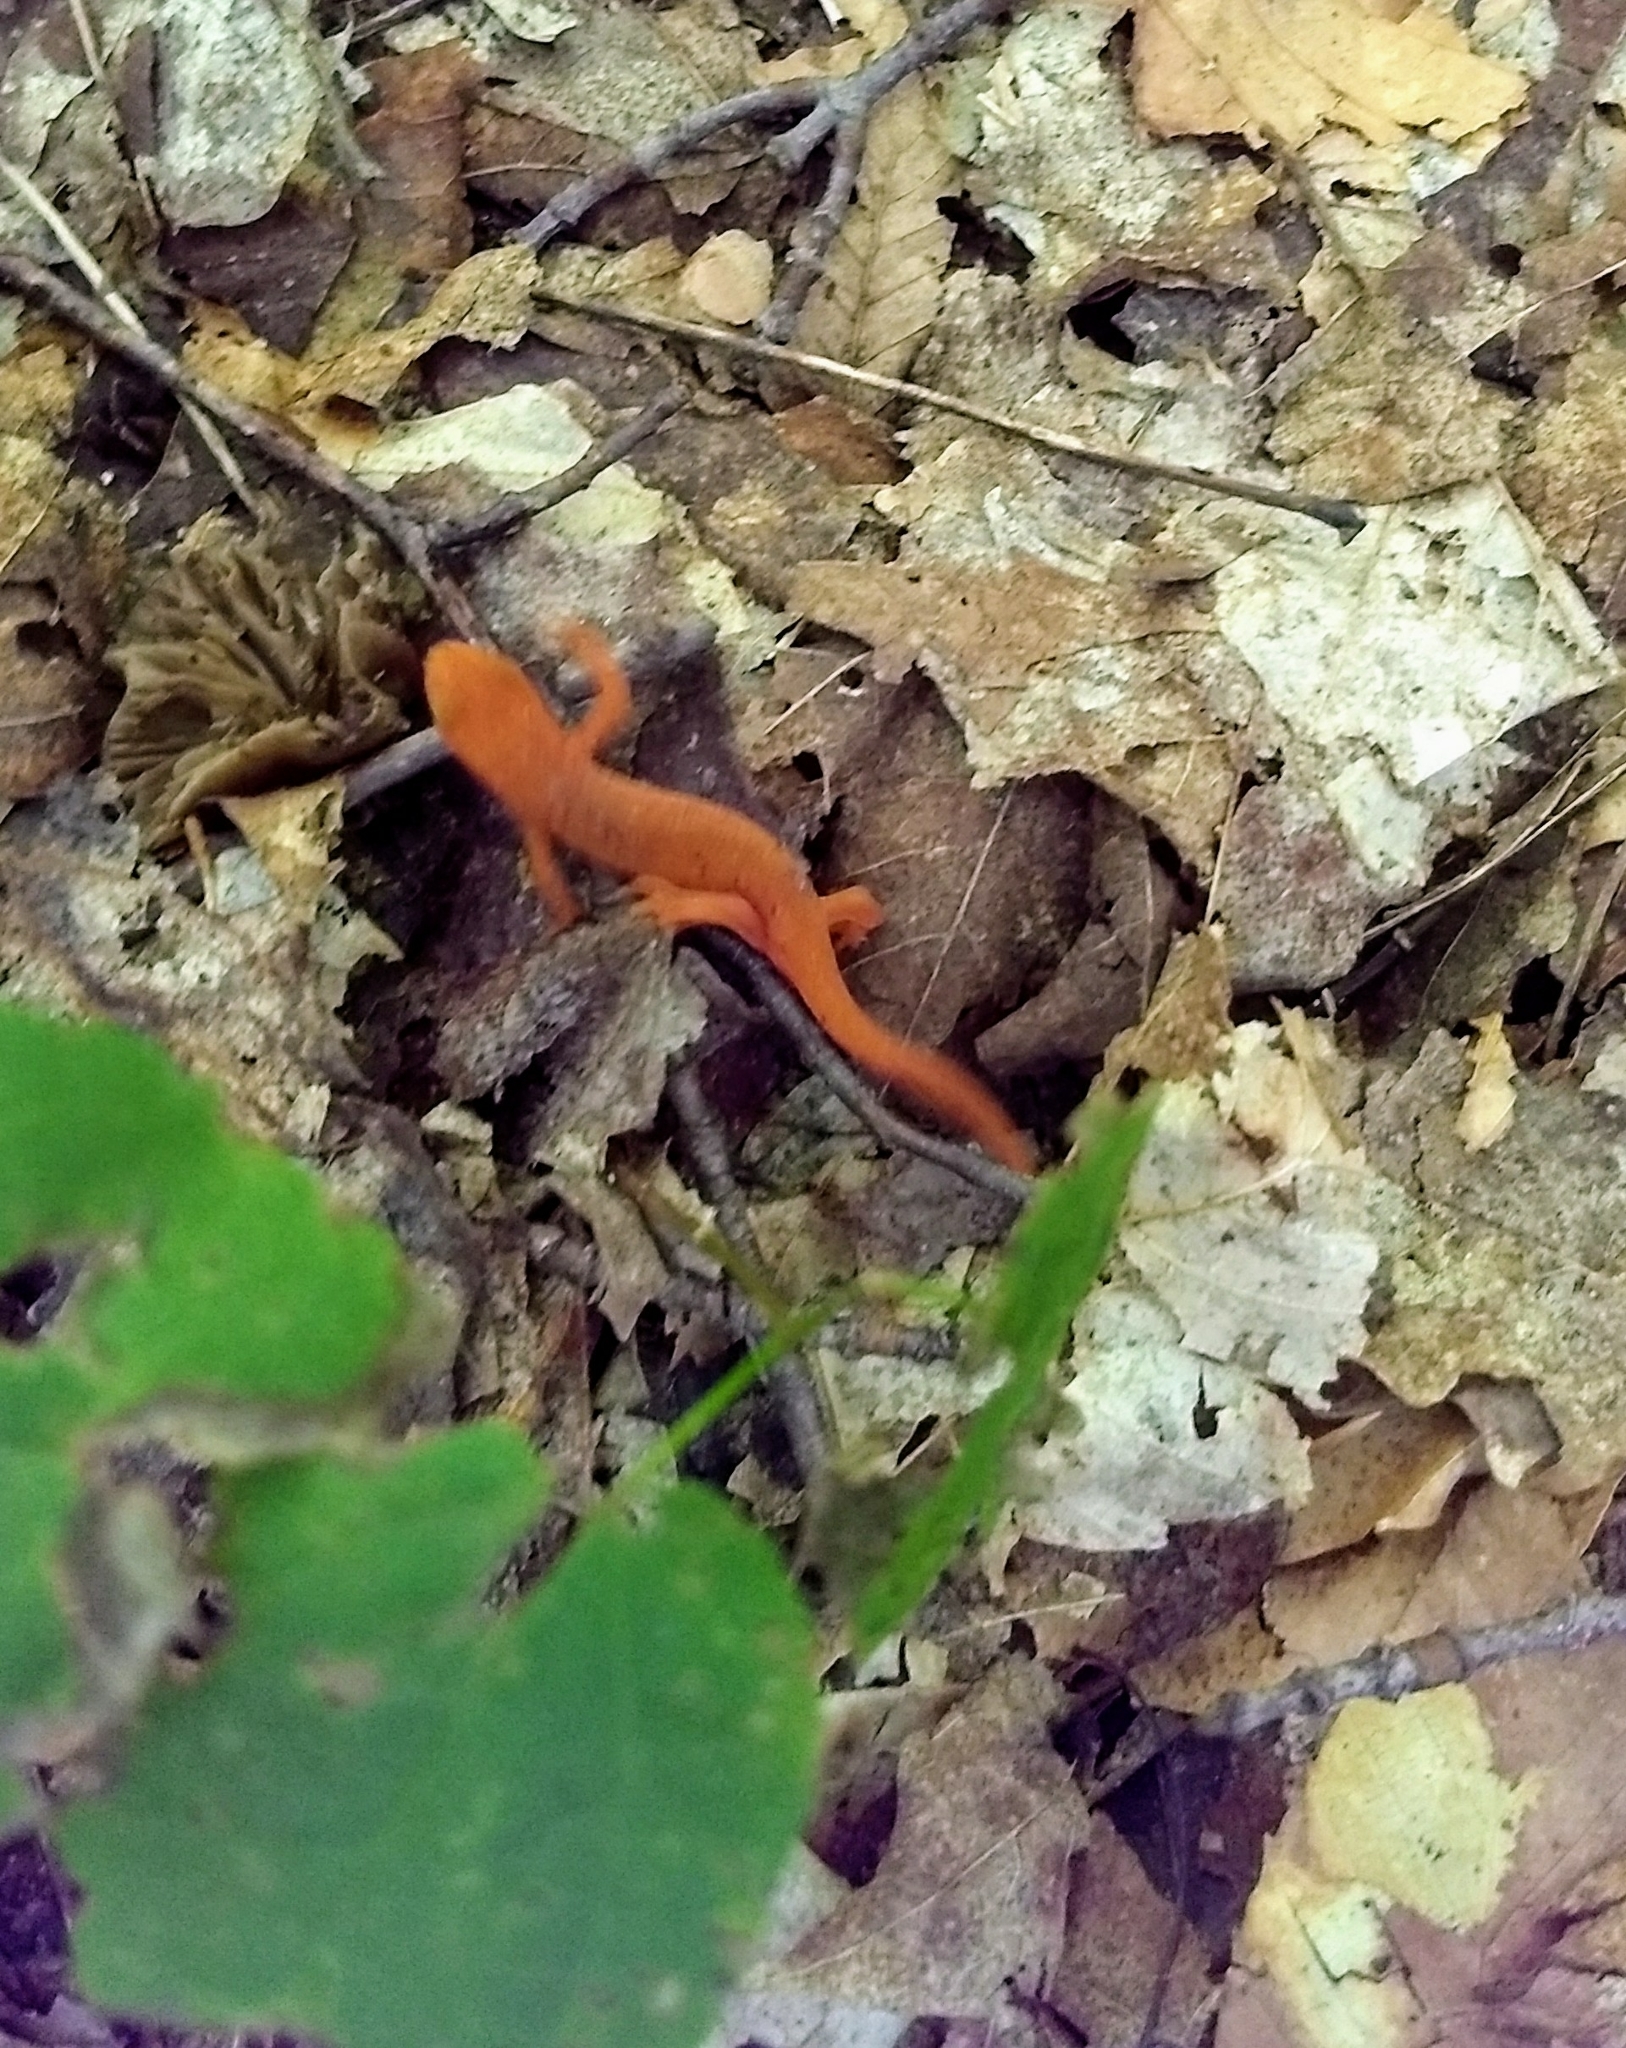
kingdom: Animalia
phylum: Chordata
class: Amphibia
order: Caudata
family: Salamandridae
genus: Notophthalmus
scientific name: Notophthalmus viridescens
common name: Eastern newt
